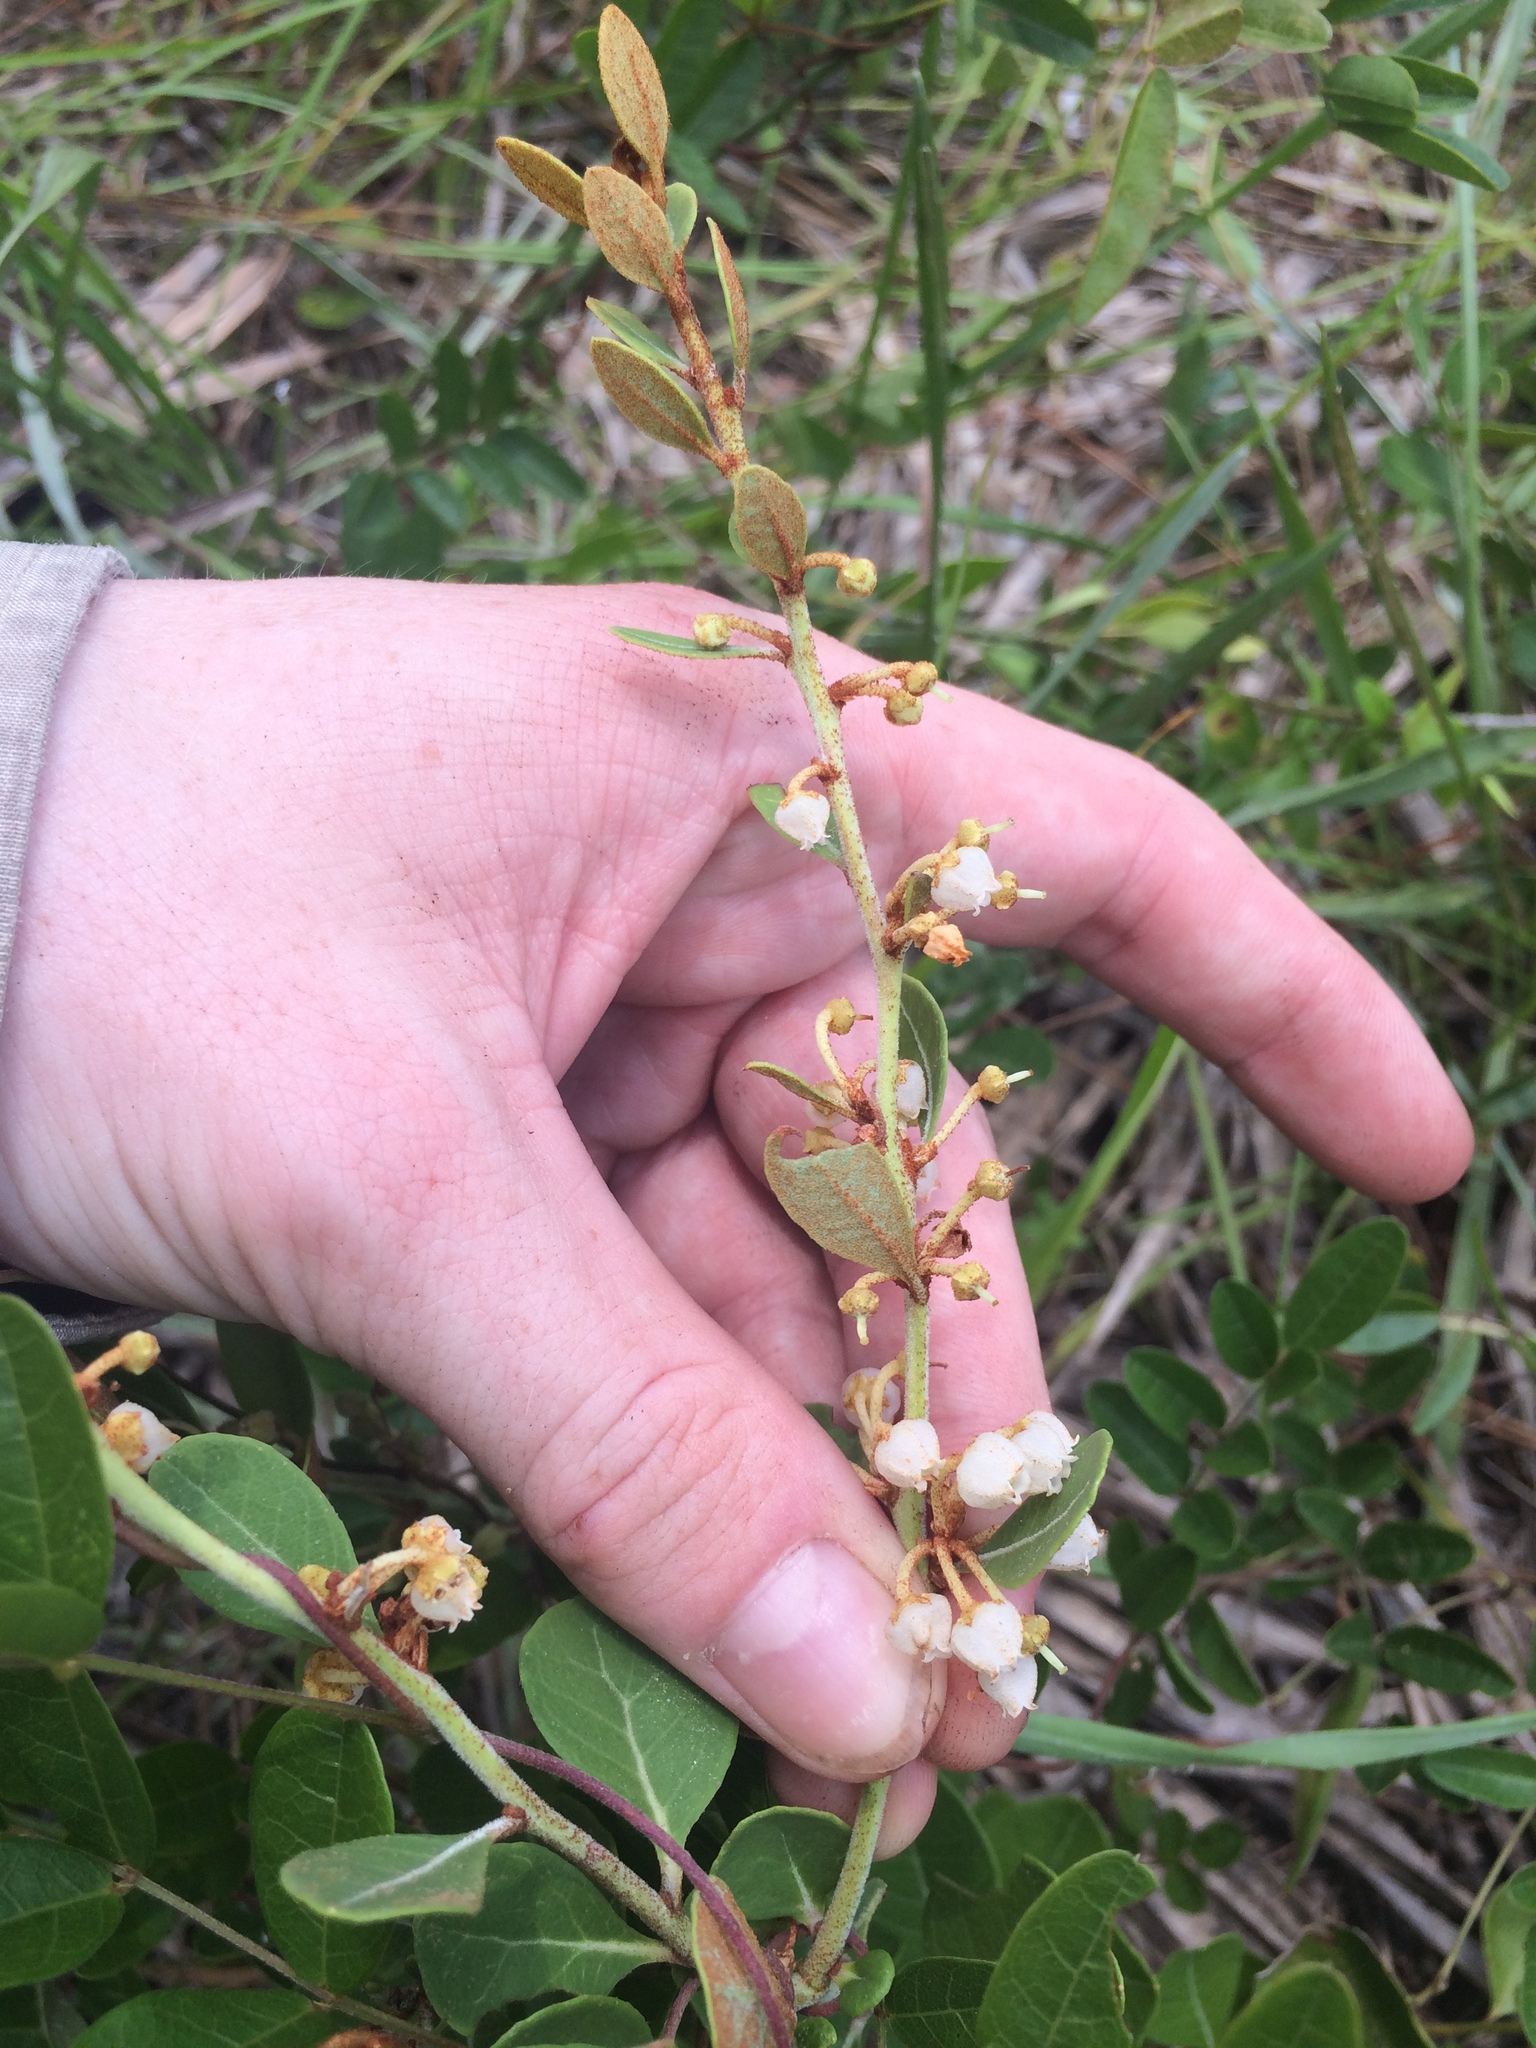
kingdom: Plantae
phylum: Tracheophyta
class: Magnoliopsida
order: Ericales
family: Ericaceae
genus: Lyonia
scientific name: Lyonia fruticosa
